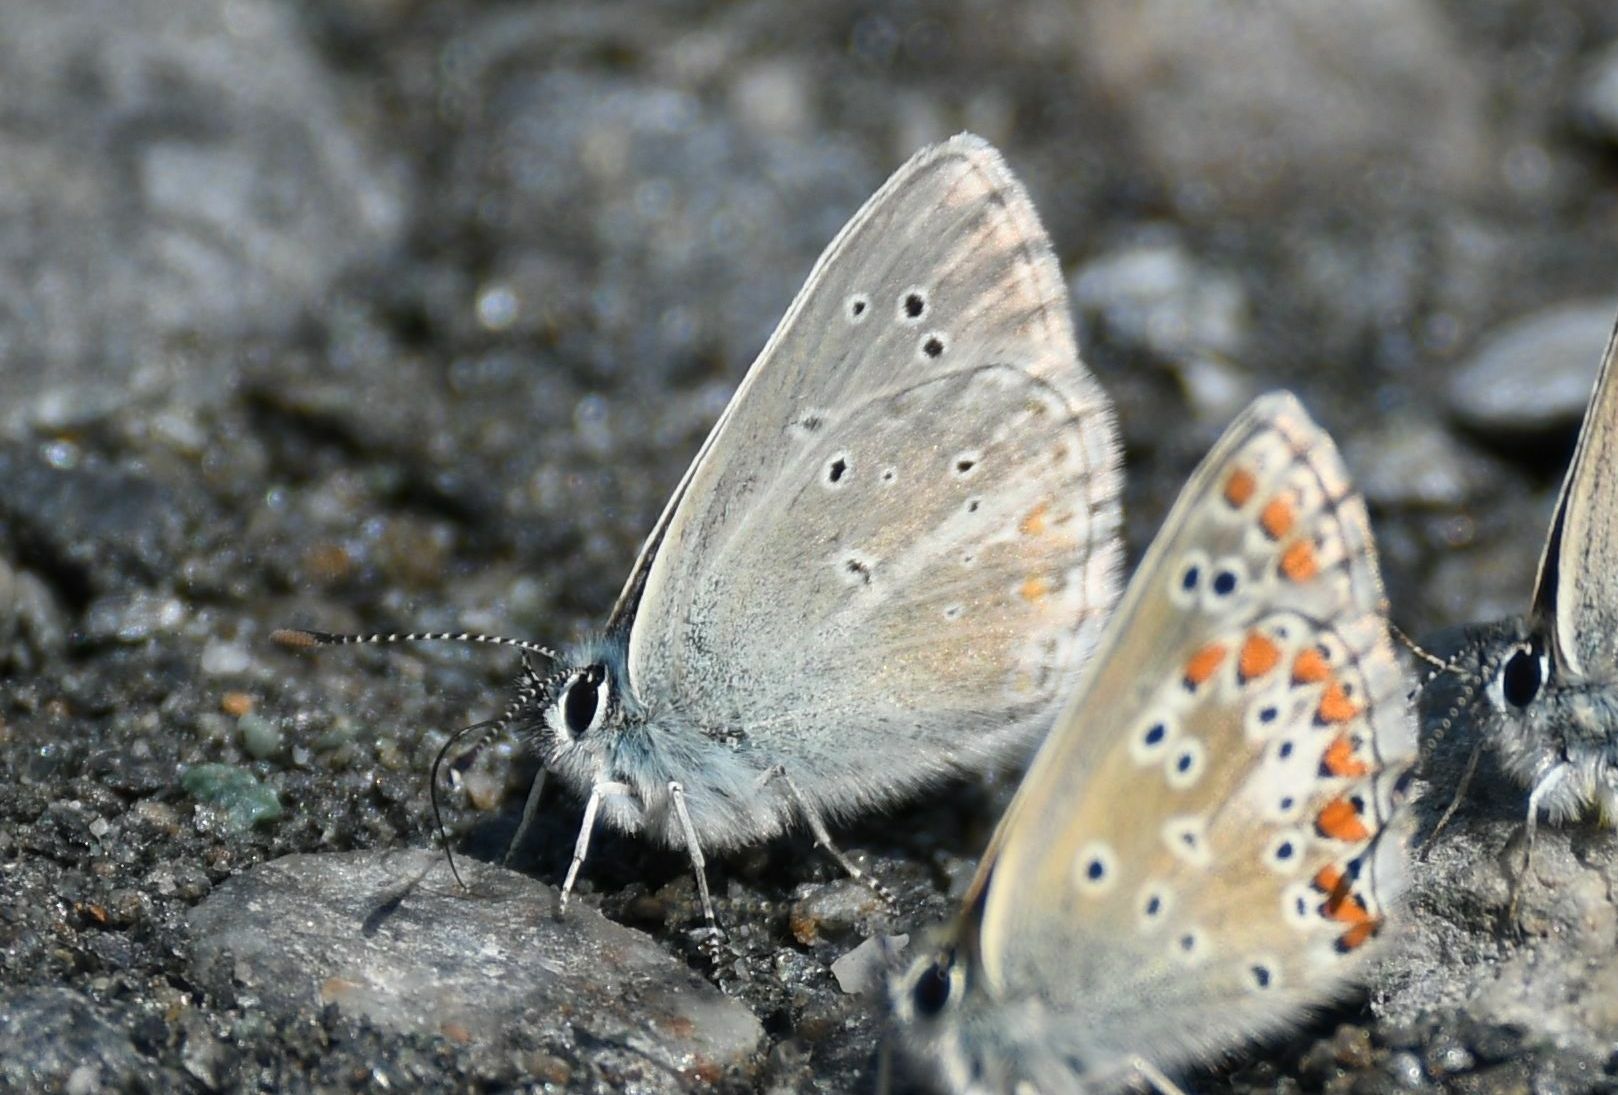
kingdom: Animalia
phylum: Arthropoda
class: Insecta
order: Lepidoptera
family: Lycaenidae
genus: Pseudoaricia
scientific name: Pseudoaricia nicias
